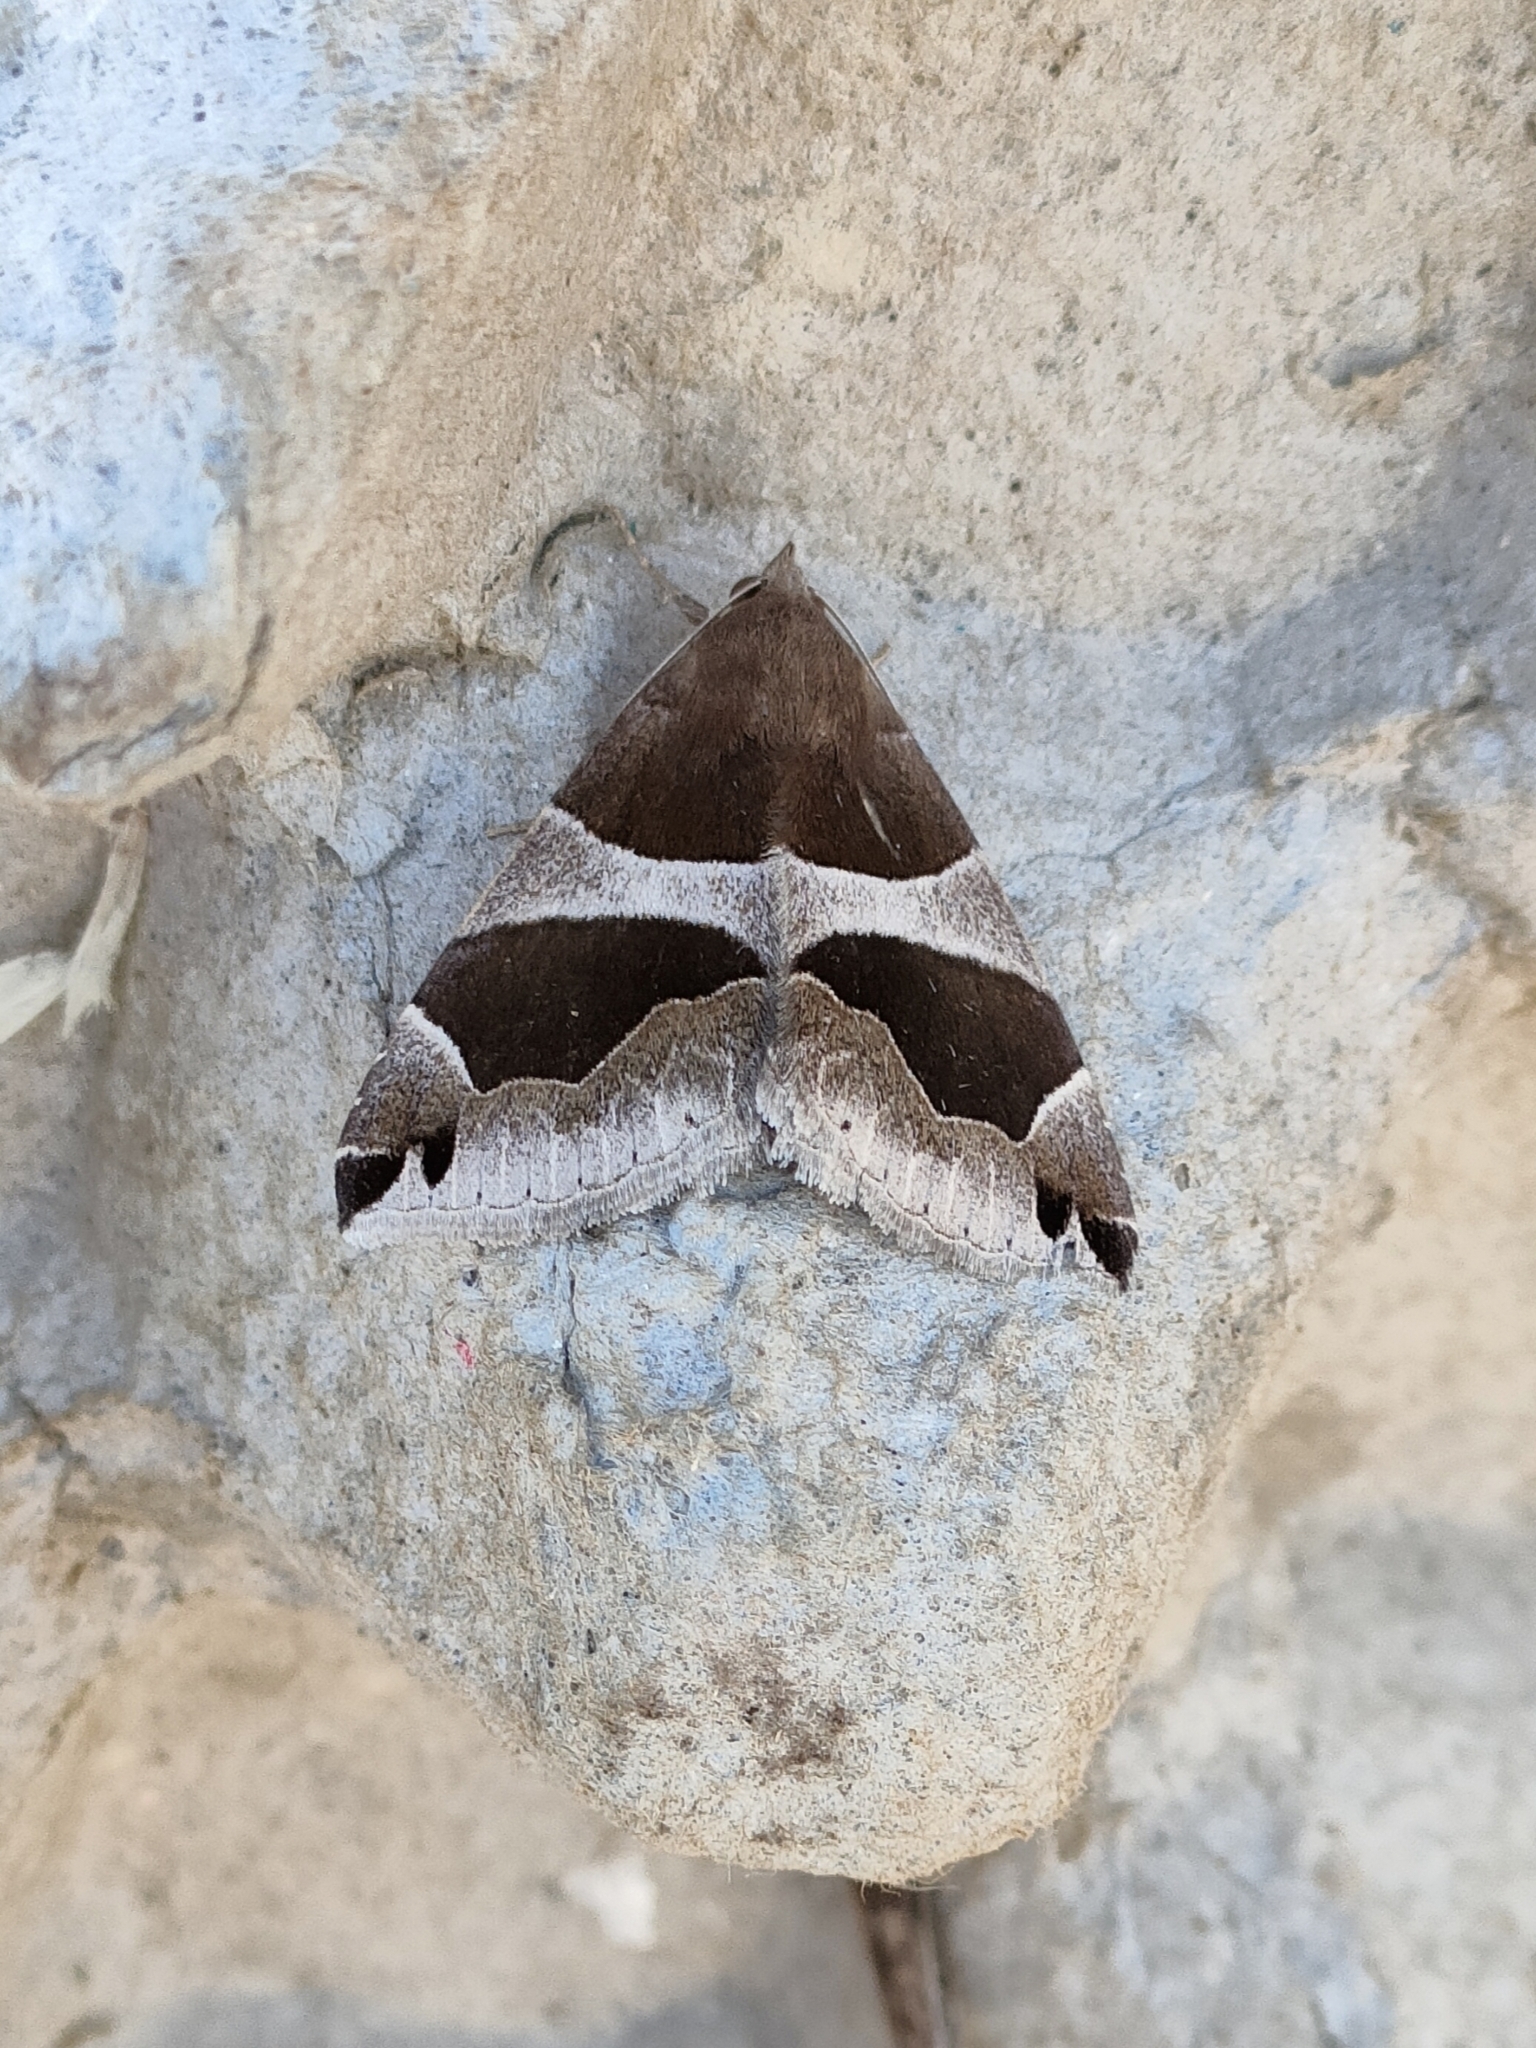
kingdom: Animalia
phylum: Arthropoda
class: Insecta
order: Lepidoptera
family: Erebidae
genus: Dysgonia
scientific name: Dysgonia algira
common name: Passenger
